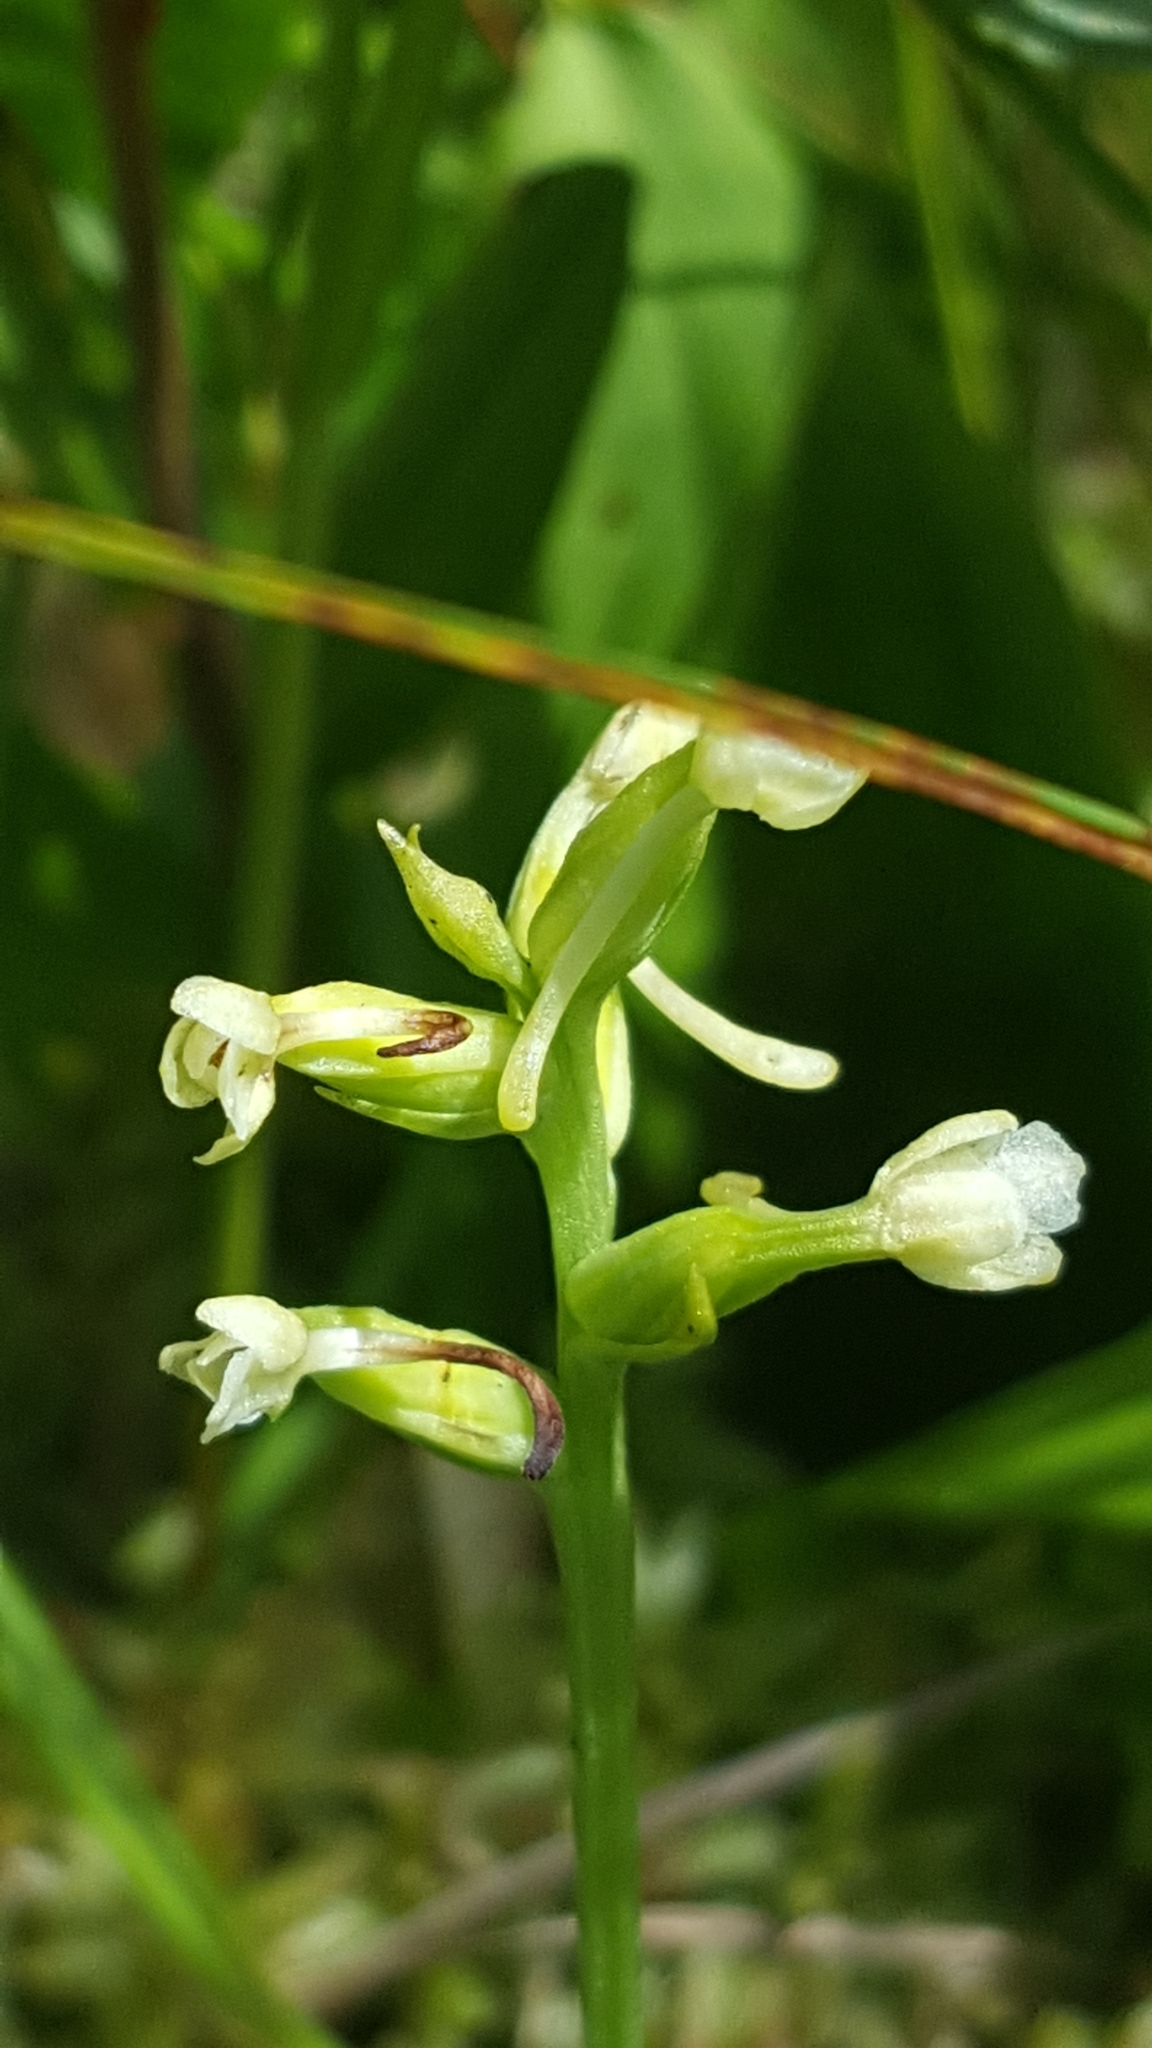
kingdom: Plantae
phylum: Tracheophyta
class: Liliopsida
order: Asparagales
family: Orchidaceae
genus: Platanthera
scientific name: Platanthera clavellata
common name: Club-spur orchid
